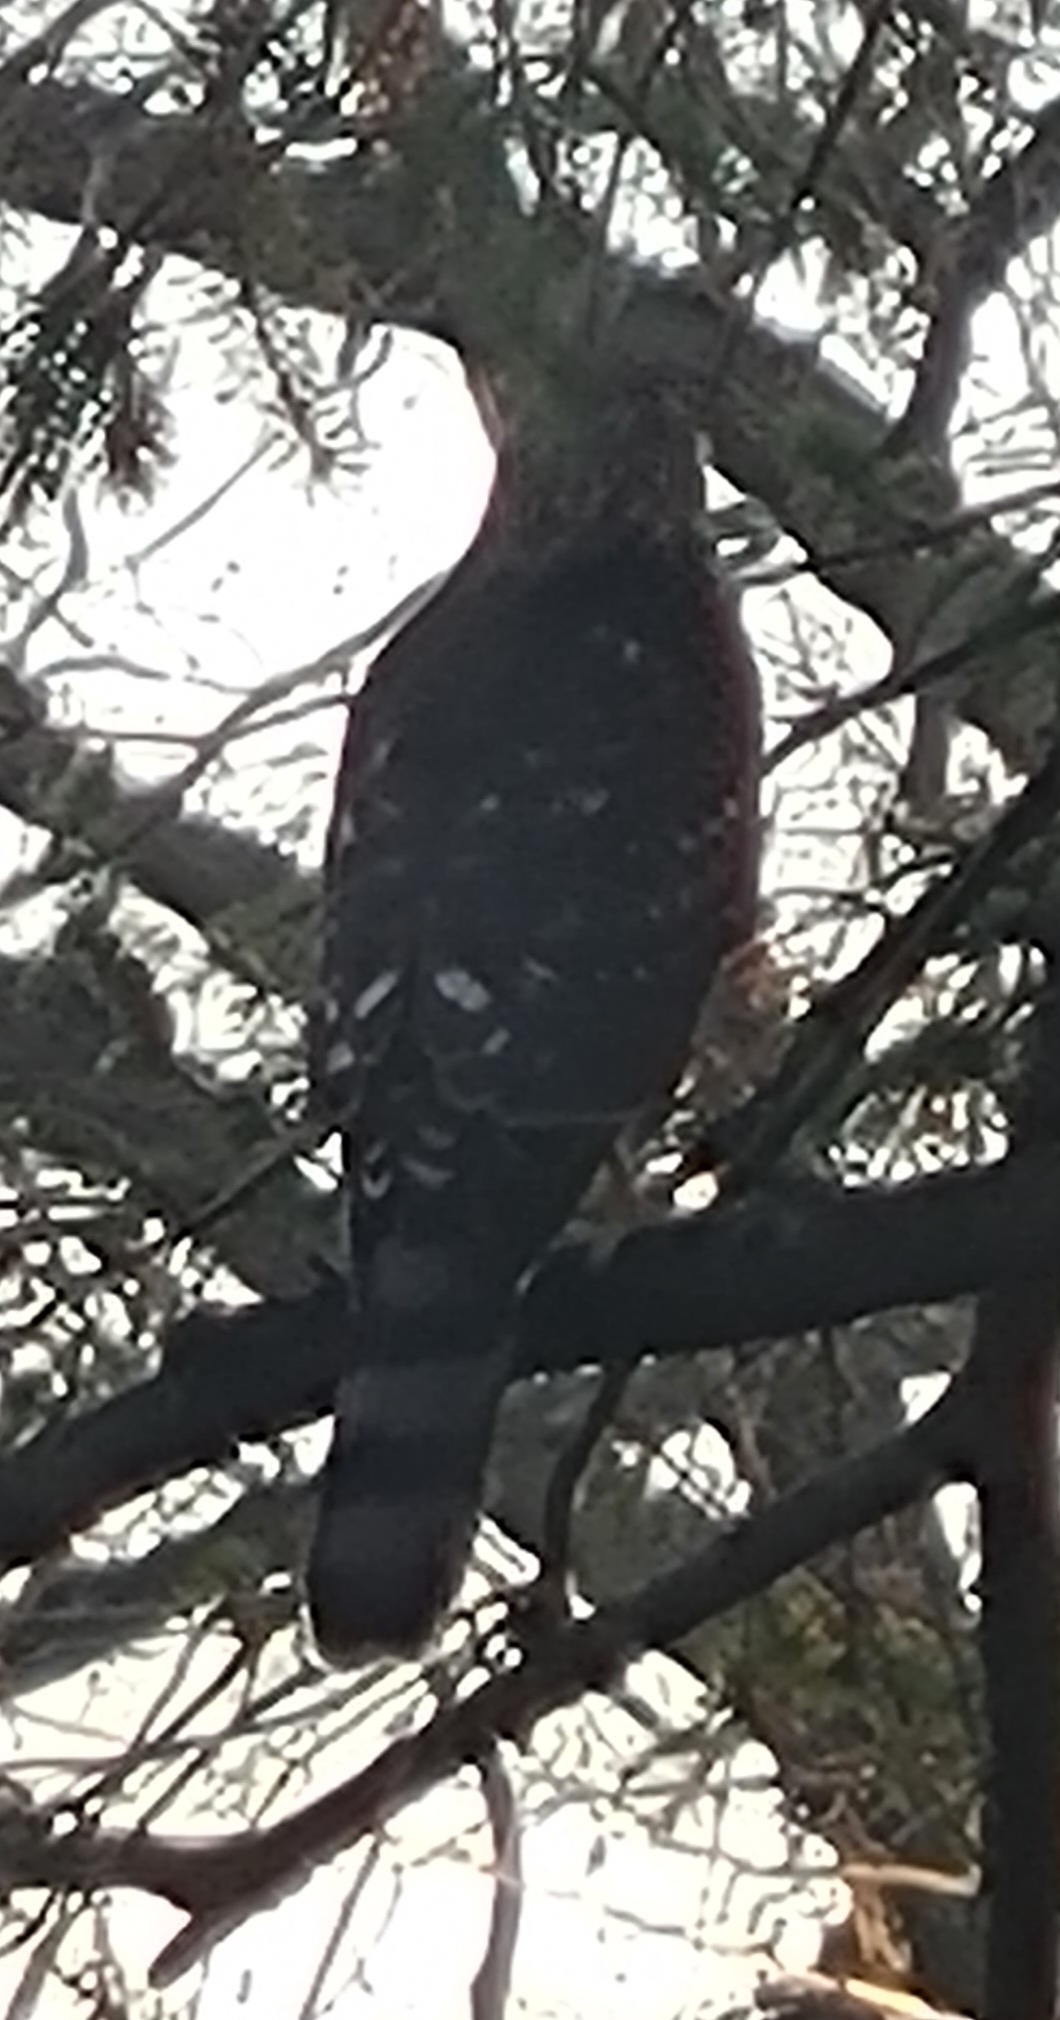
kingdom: Animalia
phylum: Chordata
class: Aves
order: Accipitriformes
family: Accipitridae
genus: Accipiter
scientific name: Accipiter cooperii
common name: Cooper's hawk
